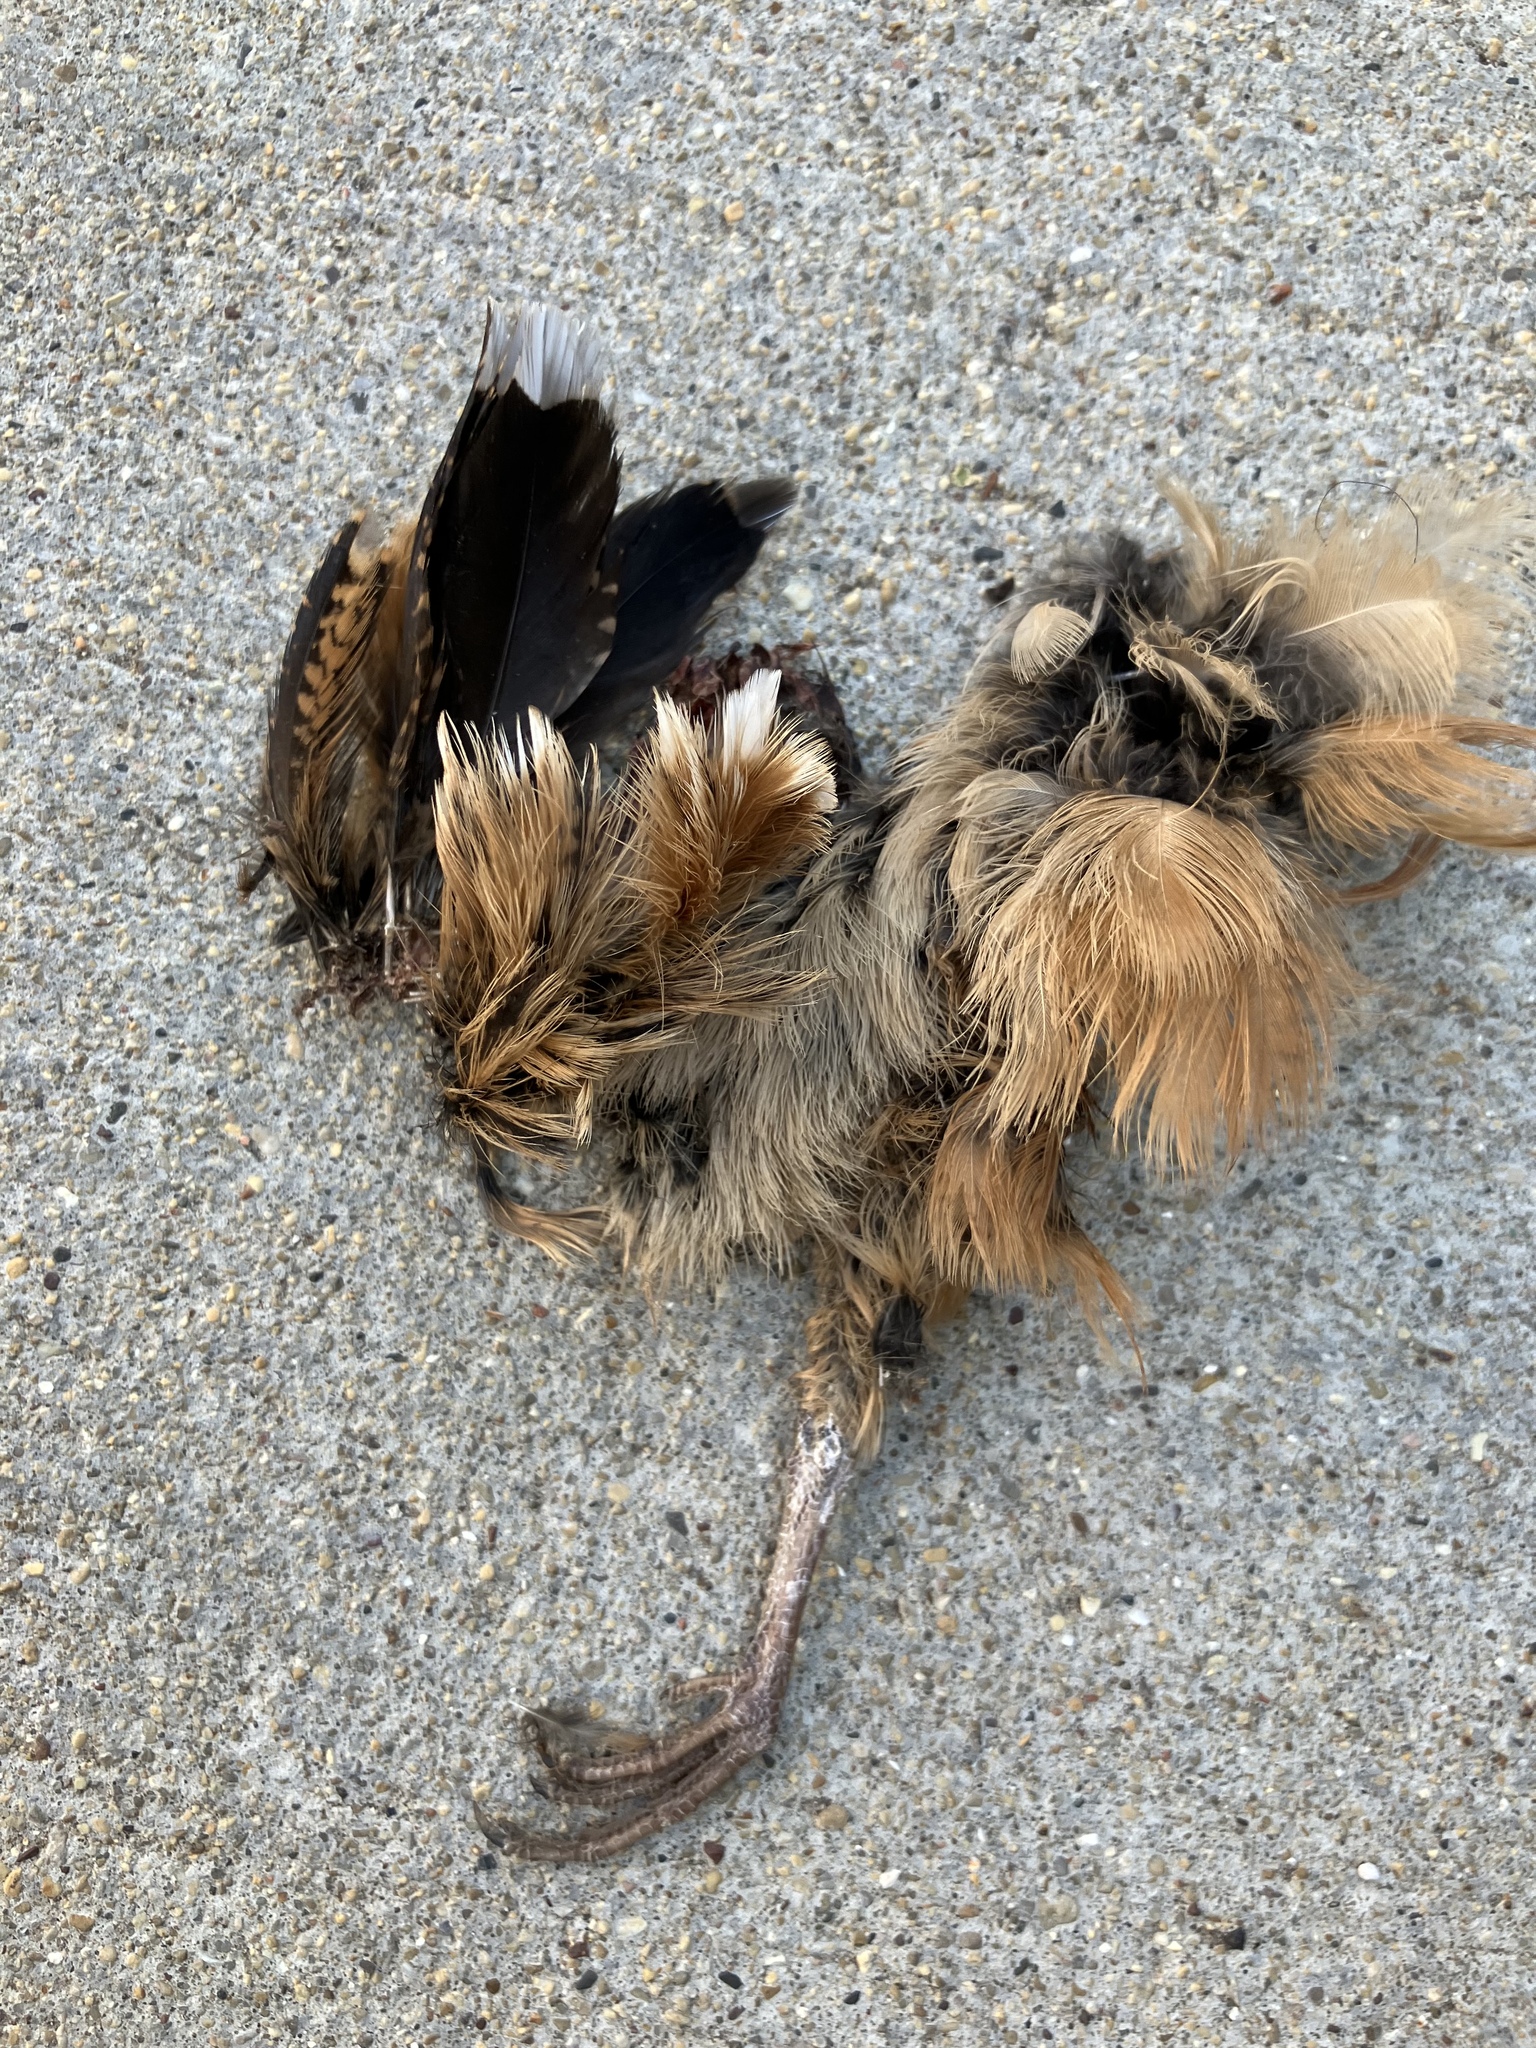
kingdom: Animalia
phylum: Chordata
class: Aves
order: Charadriiformes
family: Scolopacidae
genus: Scolopax
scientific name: Scolopax minor
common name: American woodcock
